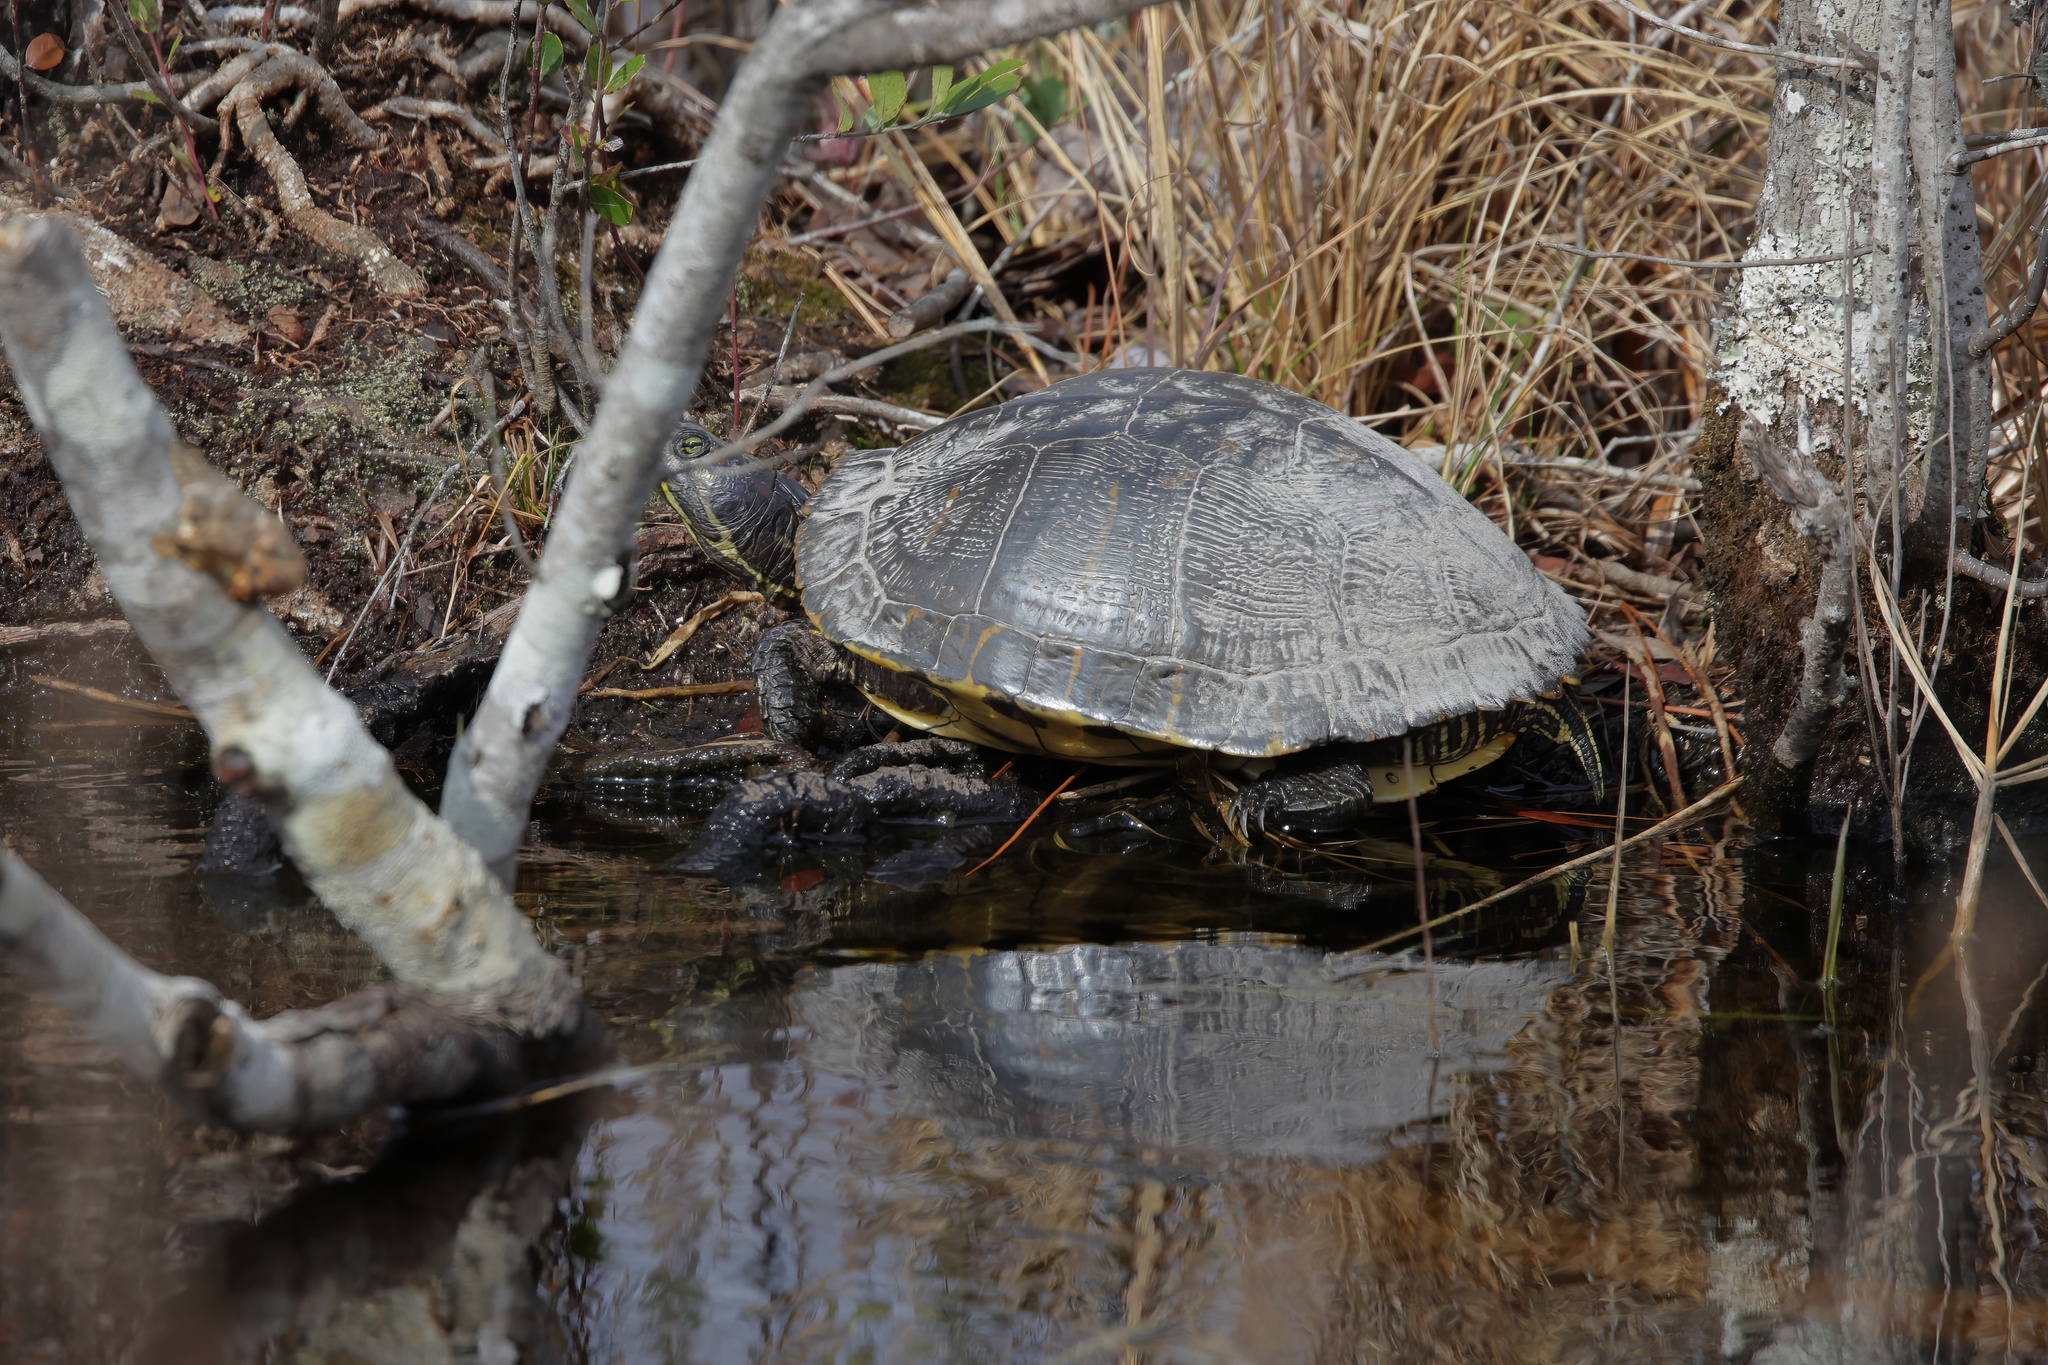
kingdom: Animalia
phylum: Chordata
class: Testudines
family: Emydidae
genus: Trachemys
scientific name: Trachemys scripta
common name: Slider
